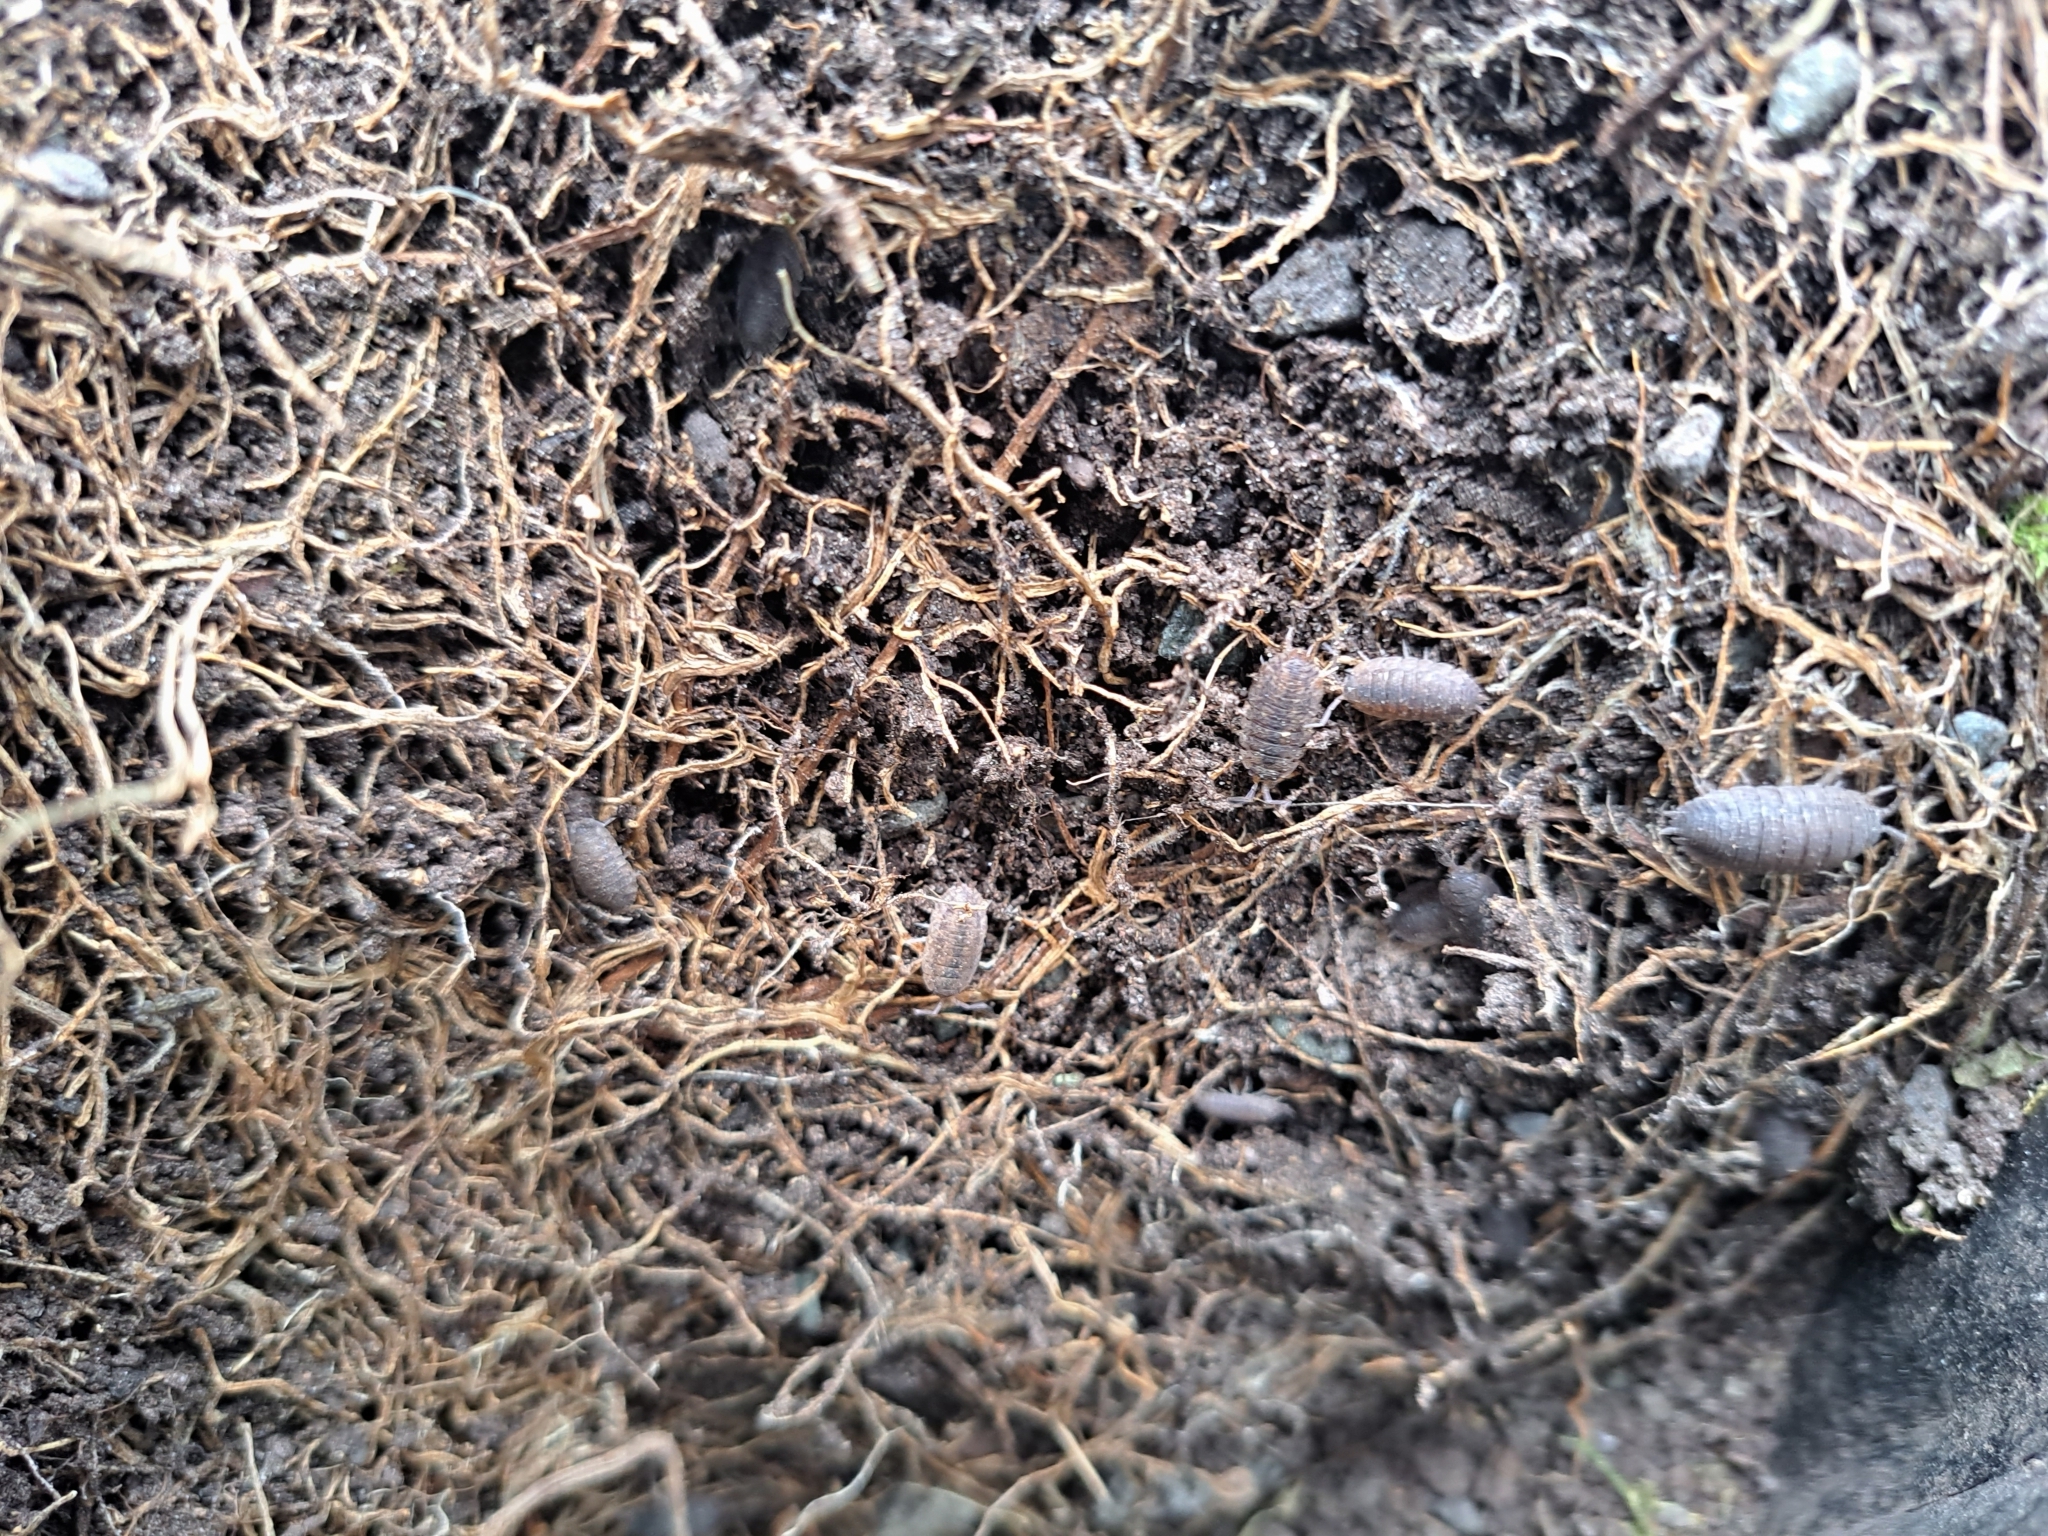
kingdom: Animalia
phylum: Arthropoda
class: Malacostraca
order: Isopoda
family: Porcellionidae
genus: Porcellio
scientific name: Porcellio scaber
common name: Common rough woodlouse
